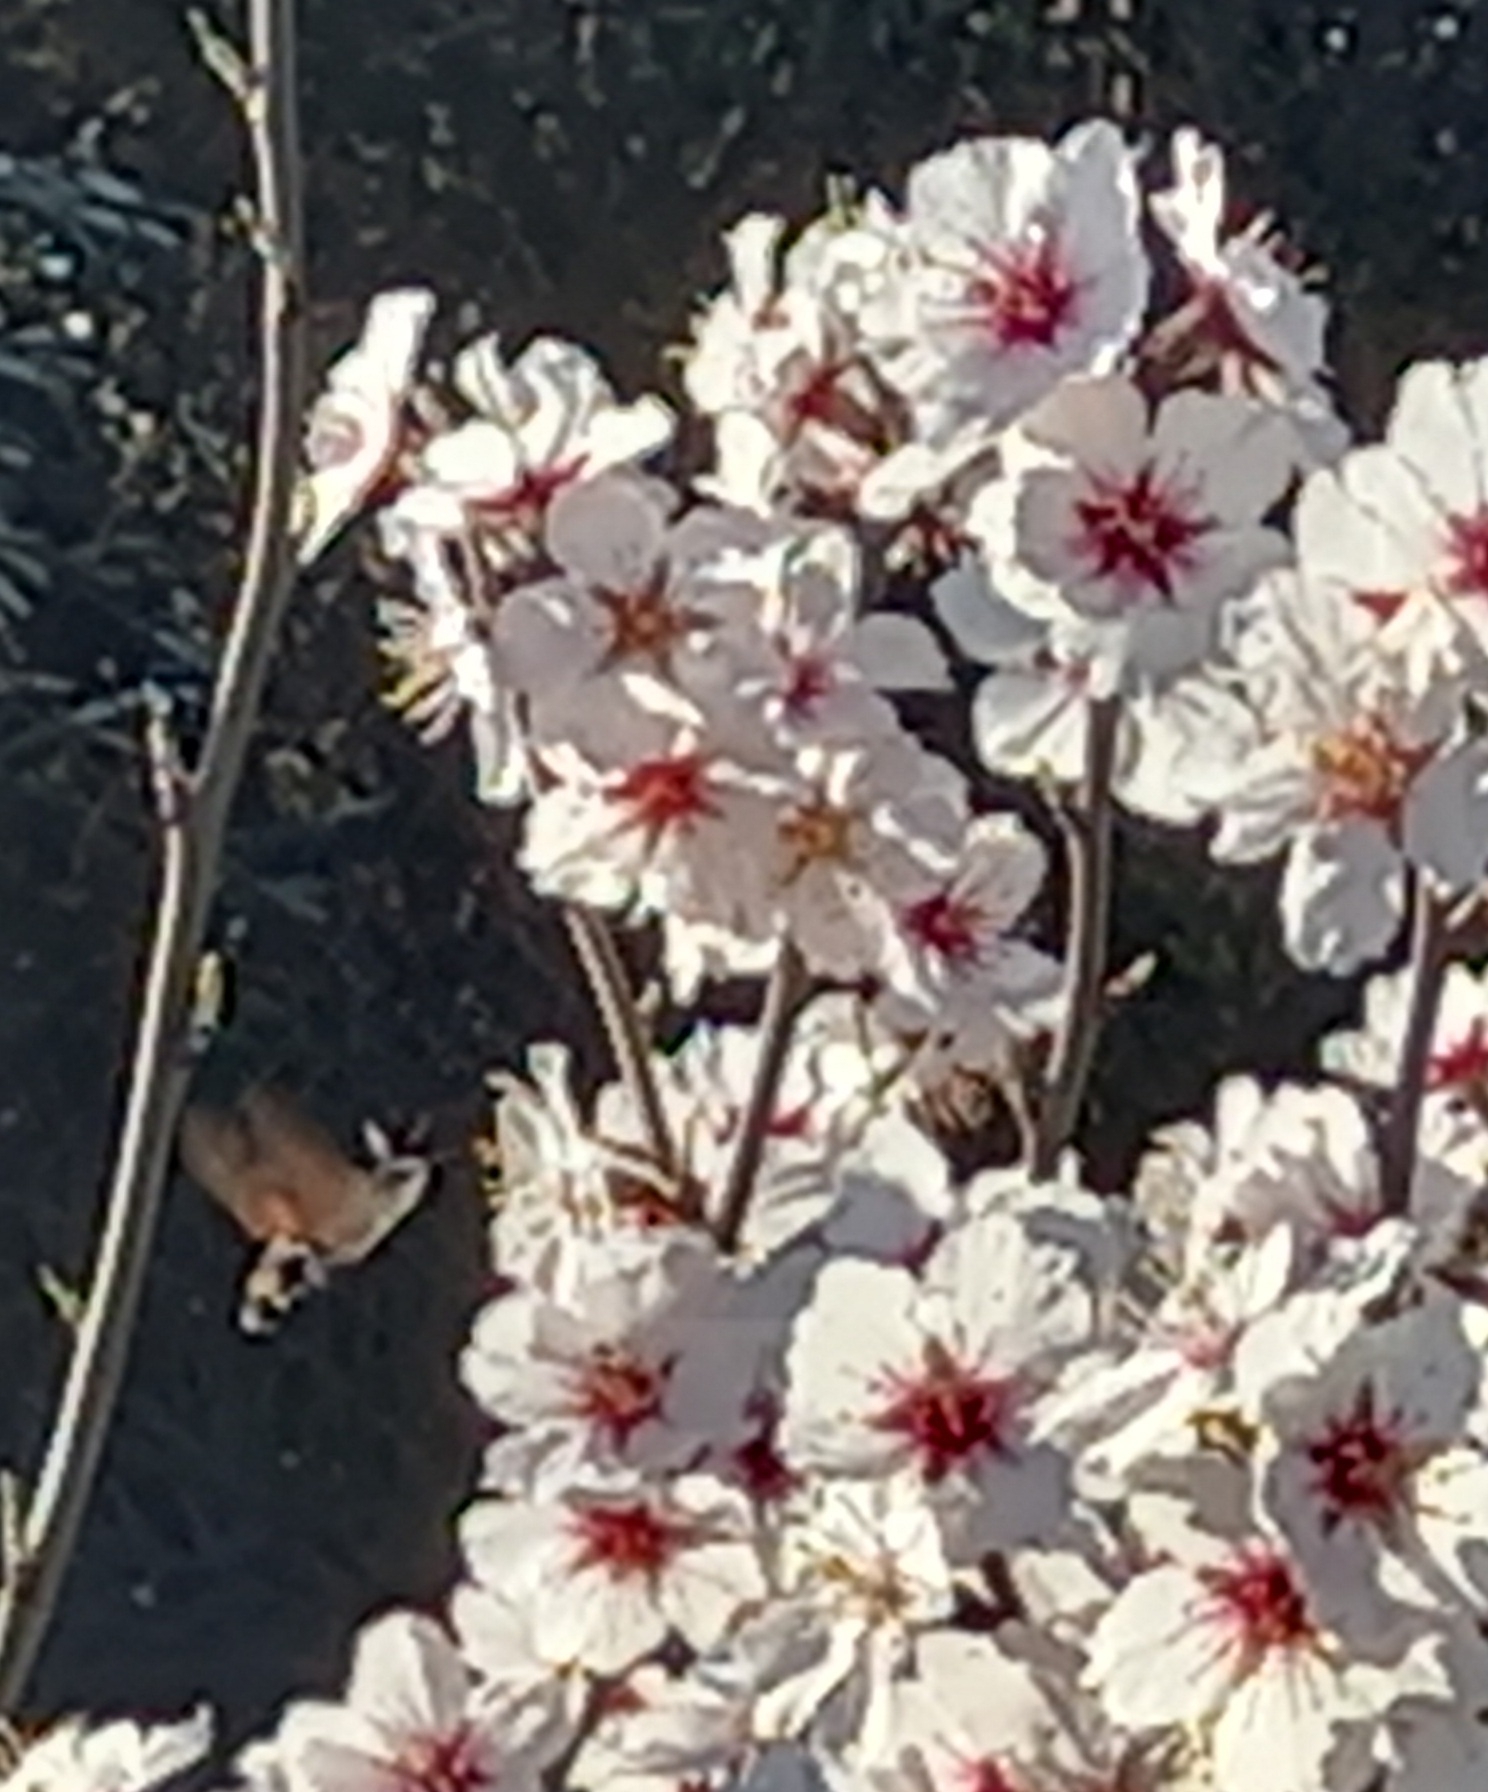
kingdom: Animalia
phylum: Arthropoda
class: Insecta
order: Lepidoptera
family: Sphingidae
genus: Macroglossum
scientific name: Macroglossum stellatarum
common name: Humming-bird hawk-moth
